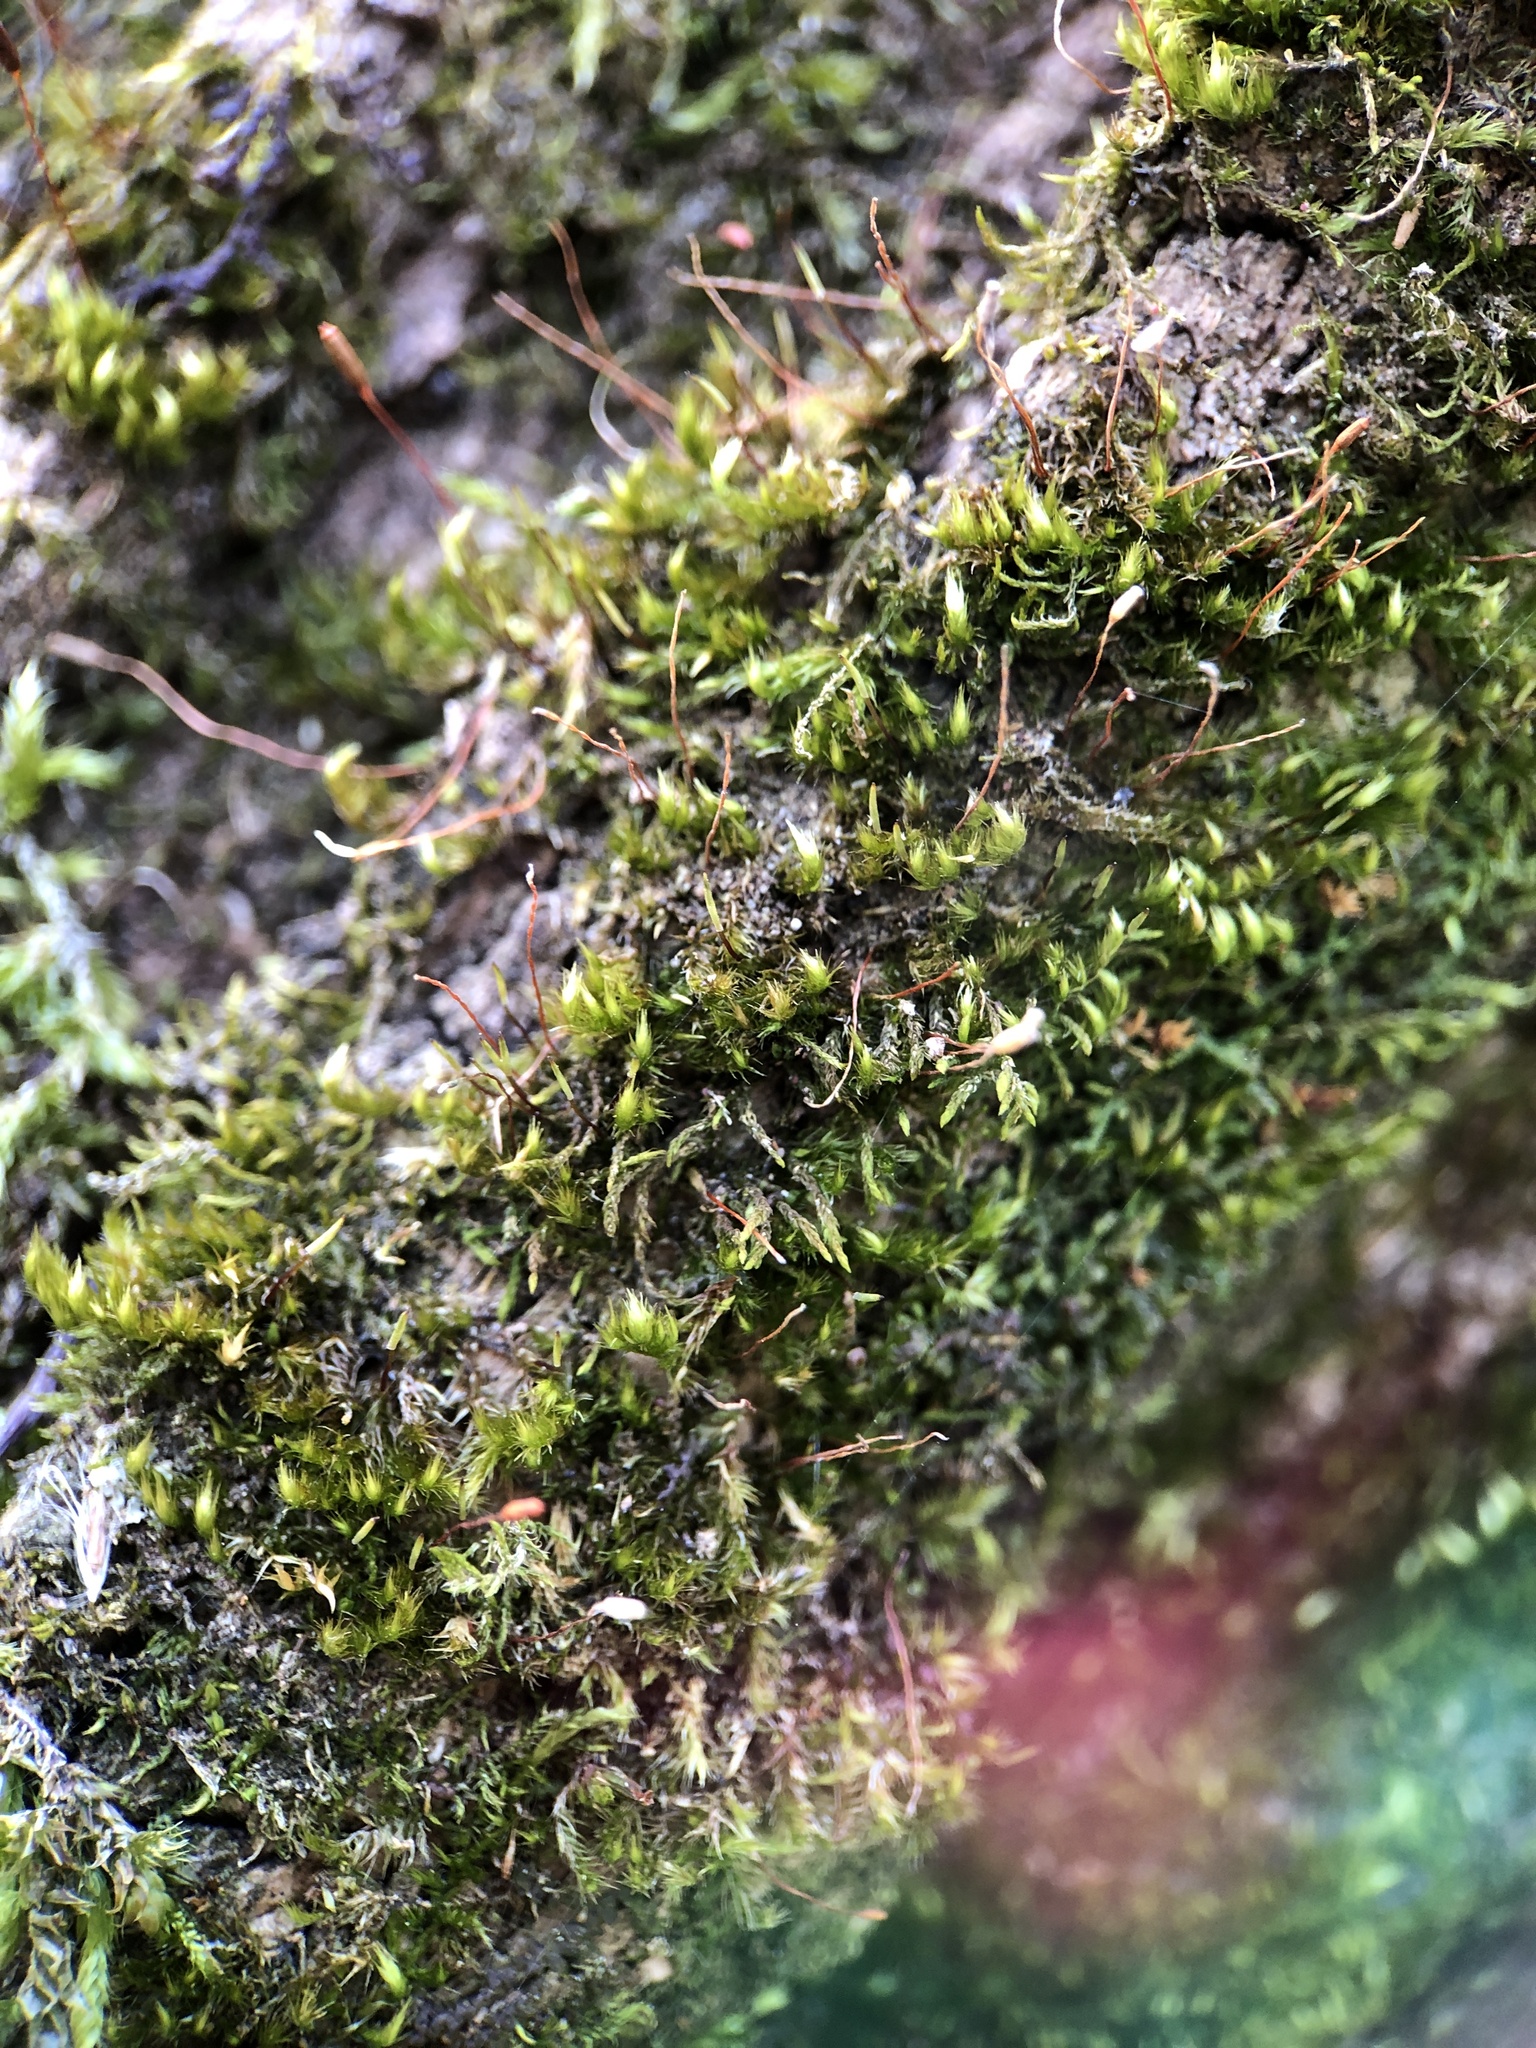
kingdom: Plantae
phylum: Bryophyta
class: Bryopsida
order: Hypnales
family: Pylaisiaceae
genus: Pylaisia
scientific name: Pylaisia polyantha
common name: Many-flowered leskea
